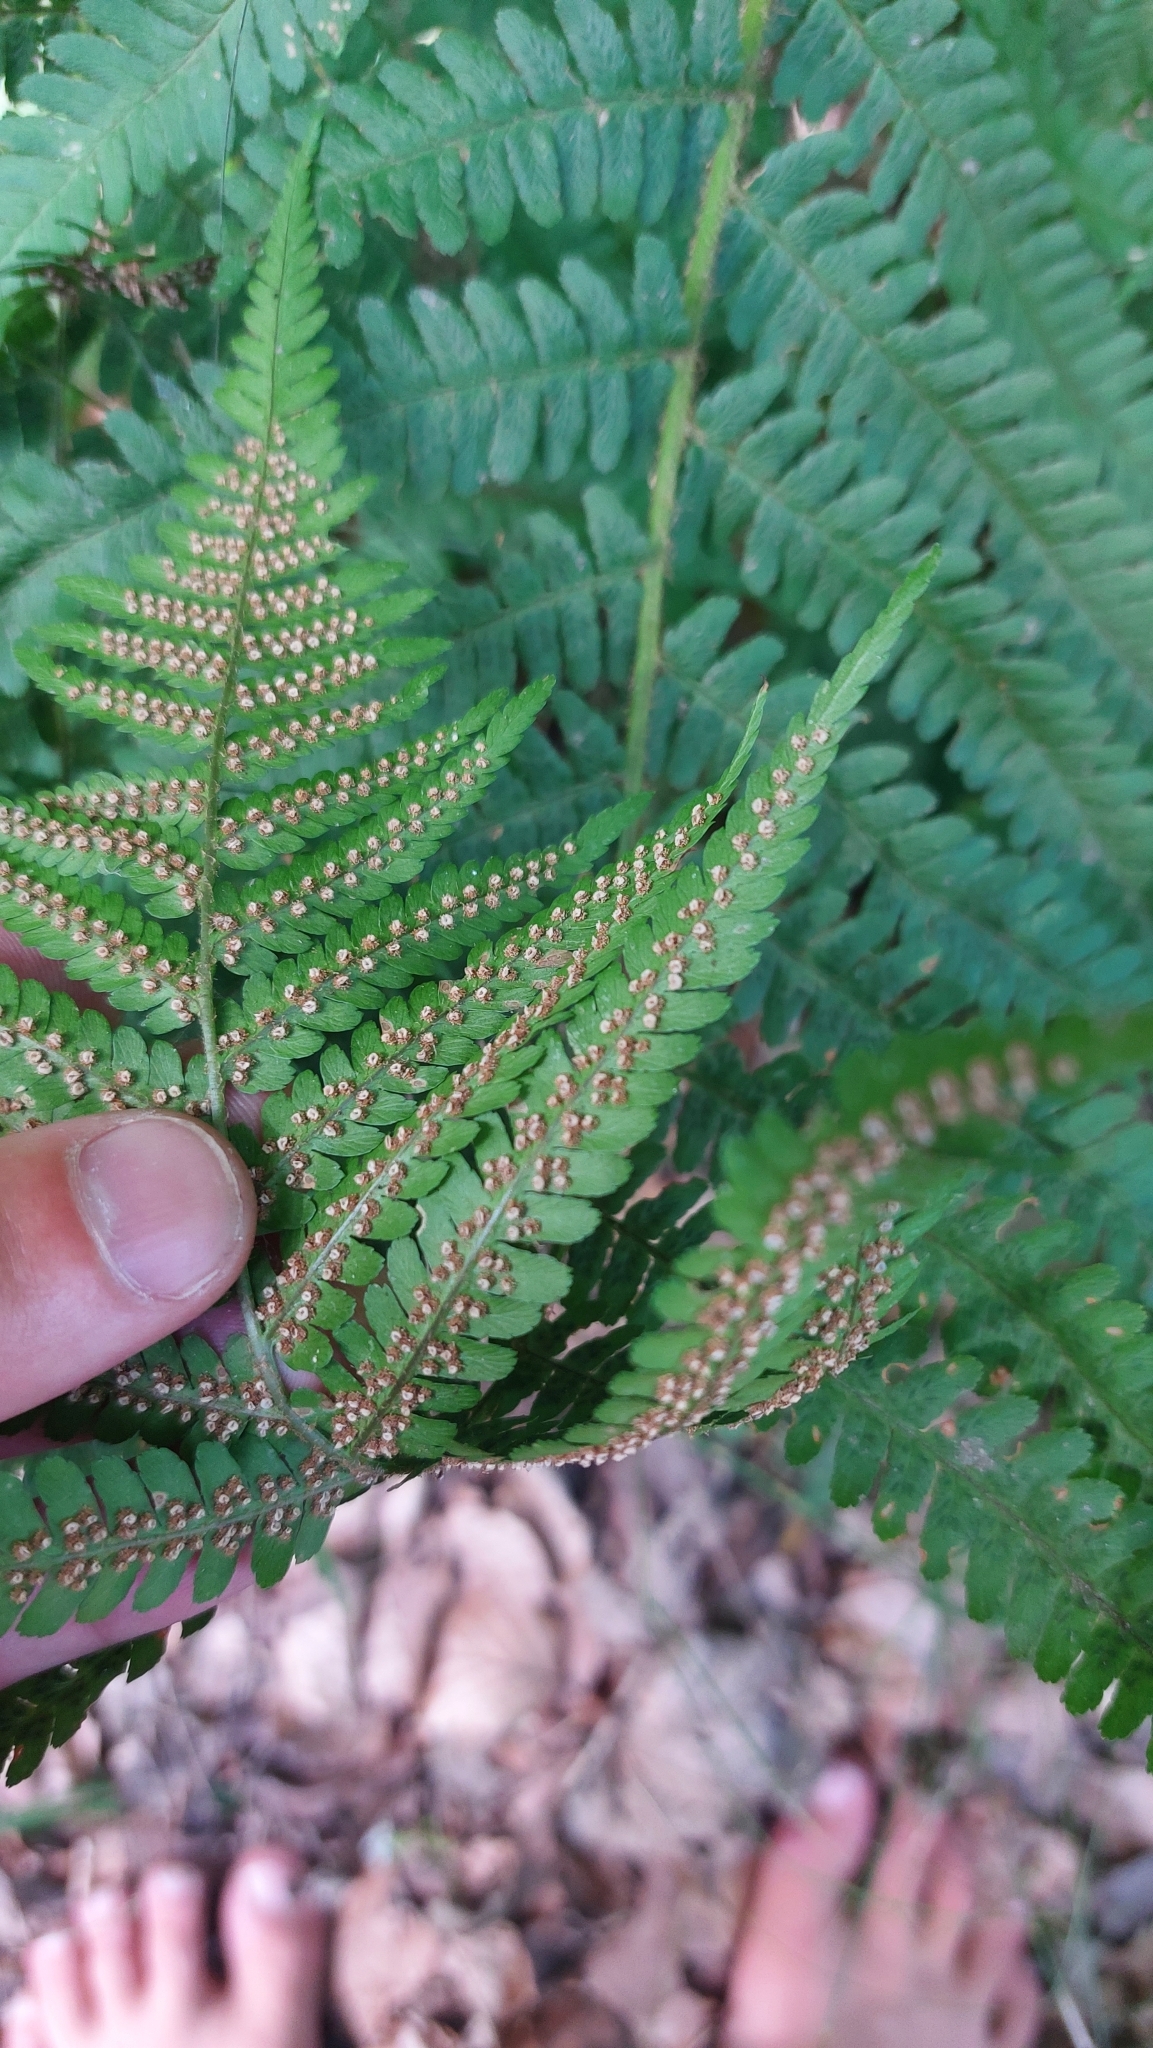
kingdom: Plantae
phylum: Tracheophyta
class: Polypodiopsida
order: Polypodiales
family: Dryopteridaceae
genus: Dryopteris
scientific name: Dryopteris filix-mas
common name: Male fern
